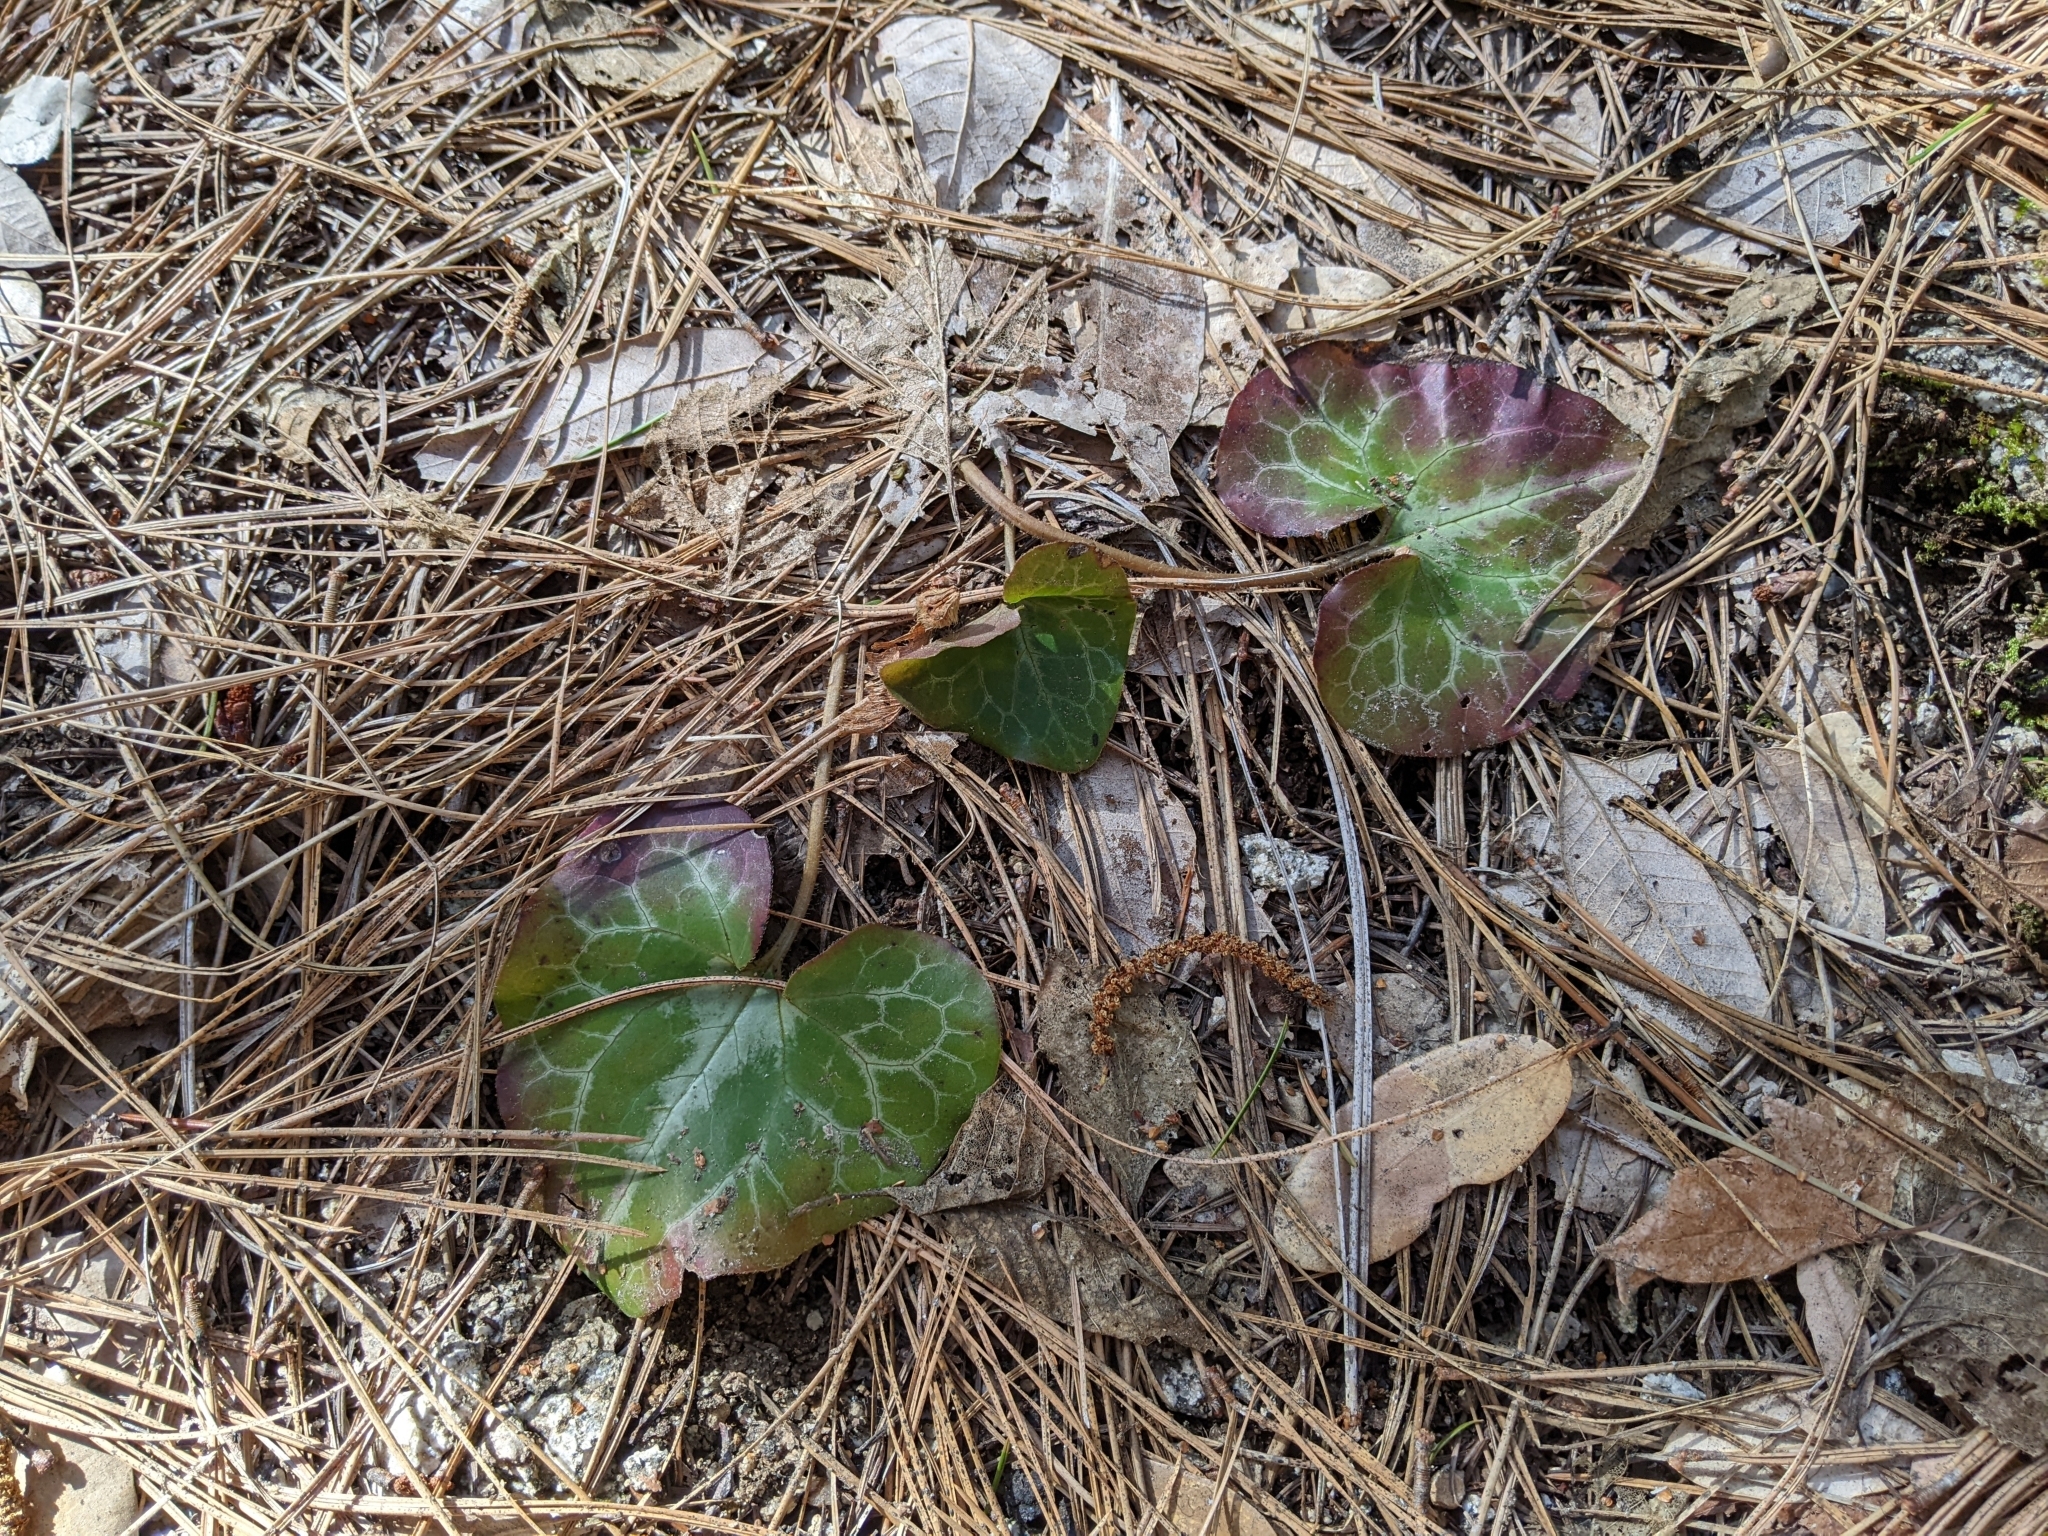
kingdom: Plantae
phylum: Tracheophyta
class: Magnoliopsida
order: Piperales
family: Aristolochiaceae
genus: Asarum
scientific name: Asarum hartwegii
